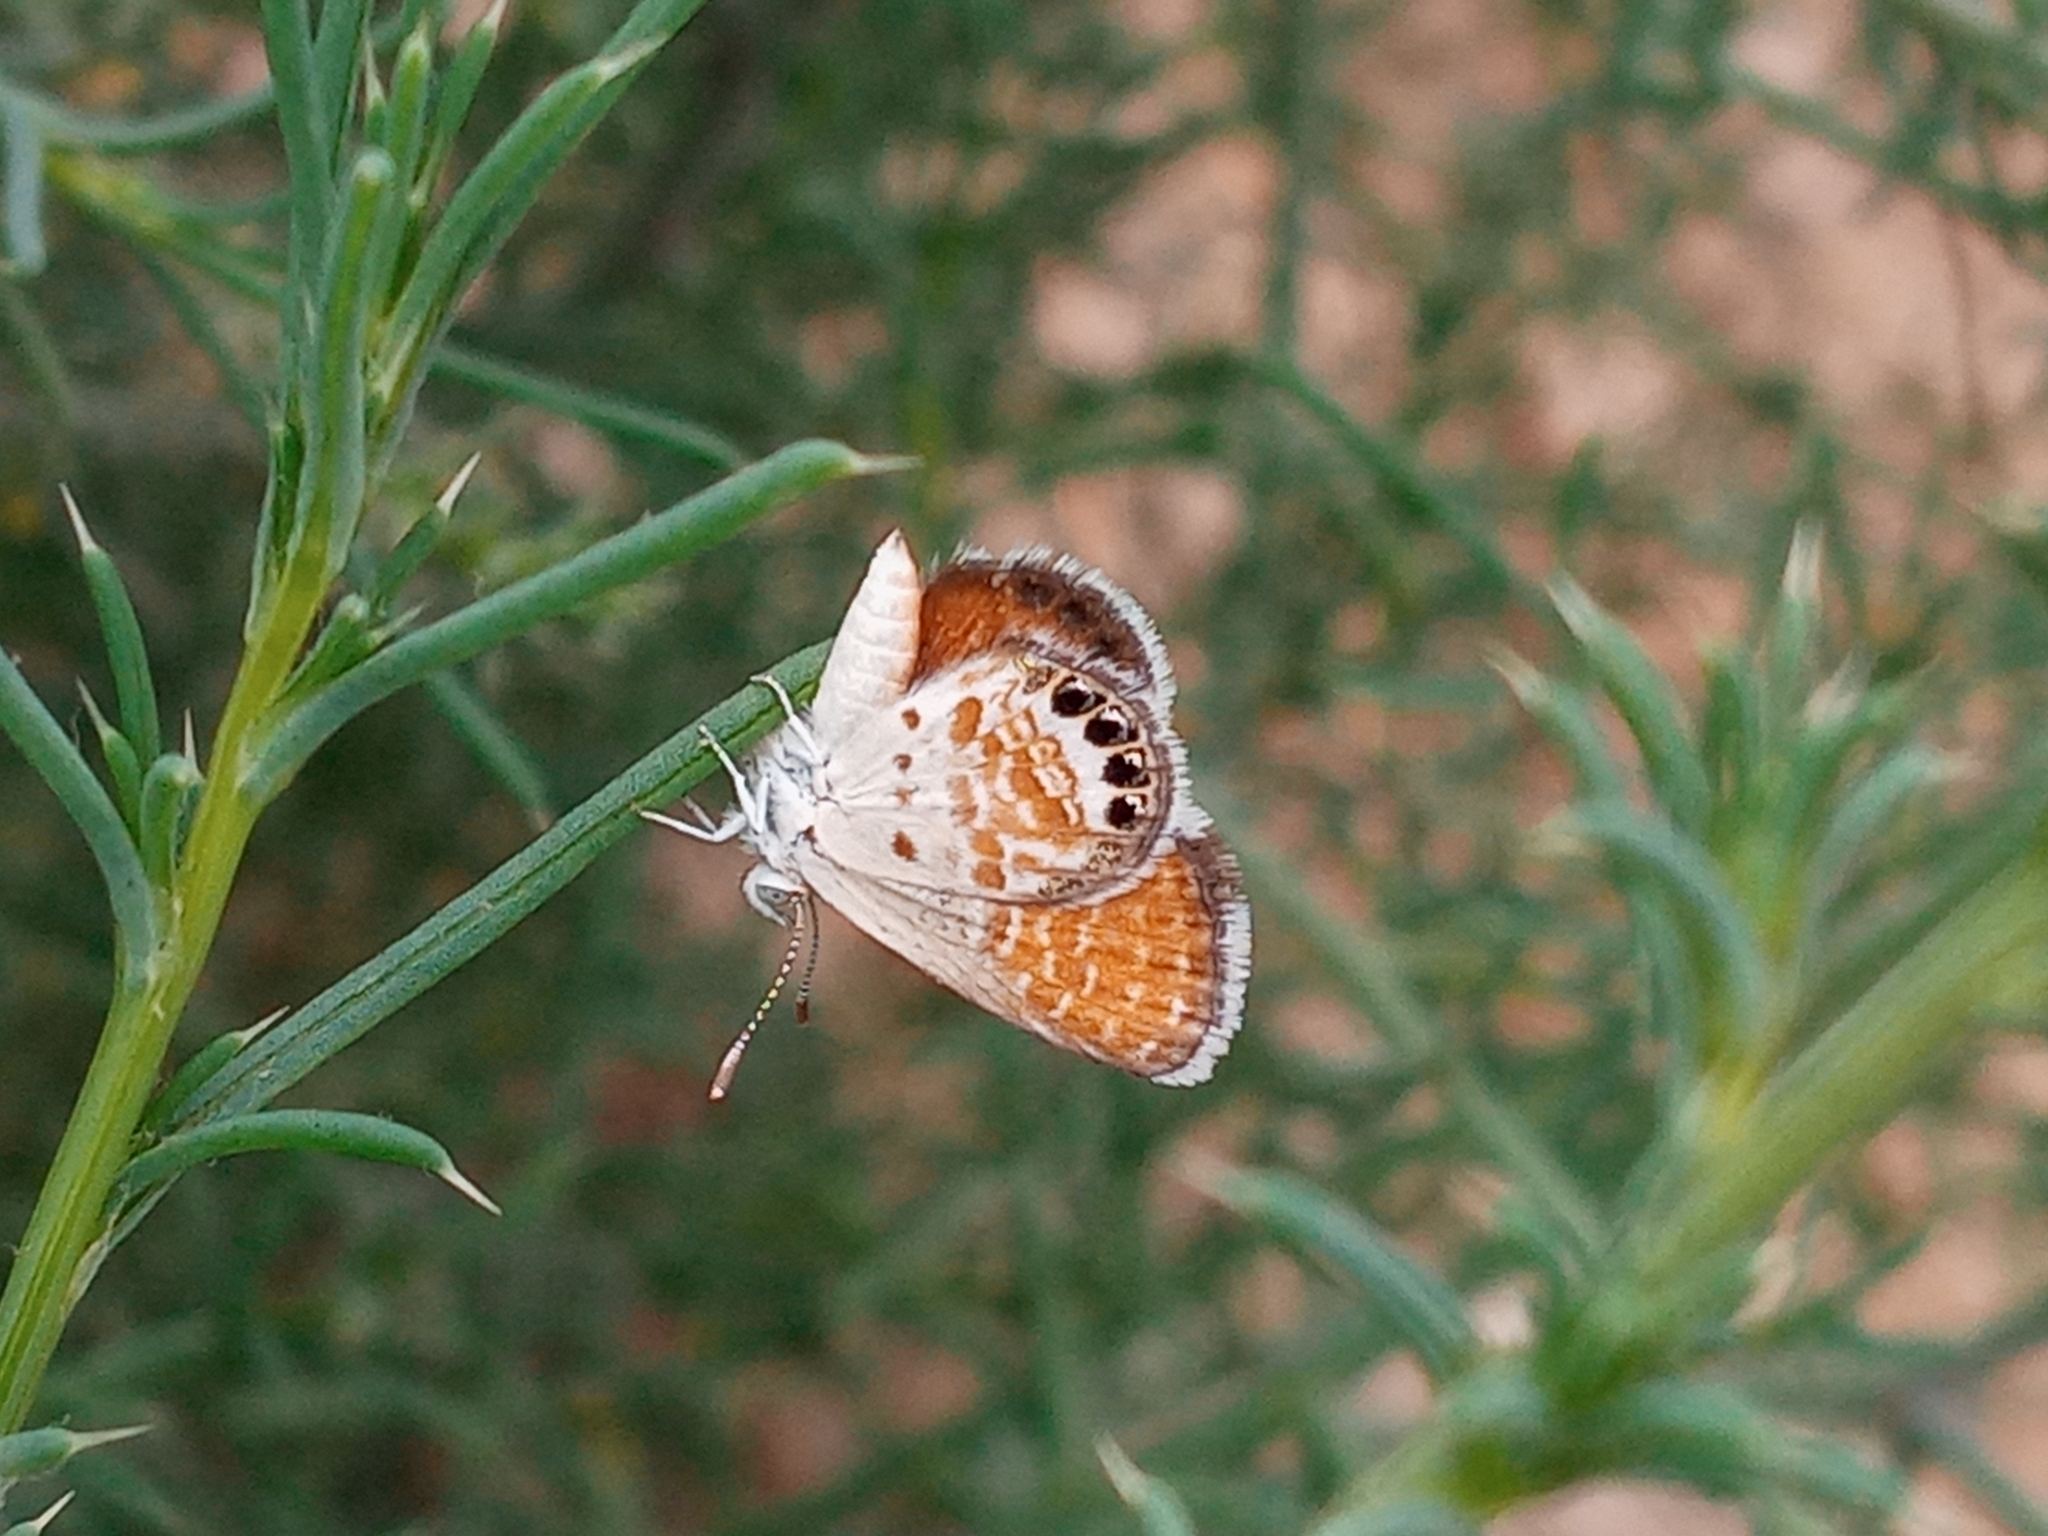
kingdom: Animalia
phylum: Arthropoda
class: Insecta
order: Lepidoptera
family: Lycaenidae
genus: Brephidium
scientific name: Brephidium exilis
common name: Pygmy blue
